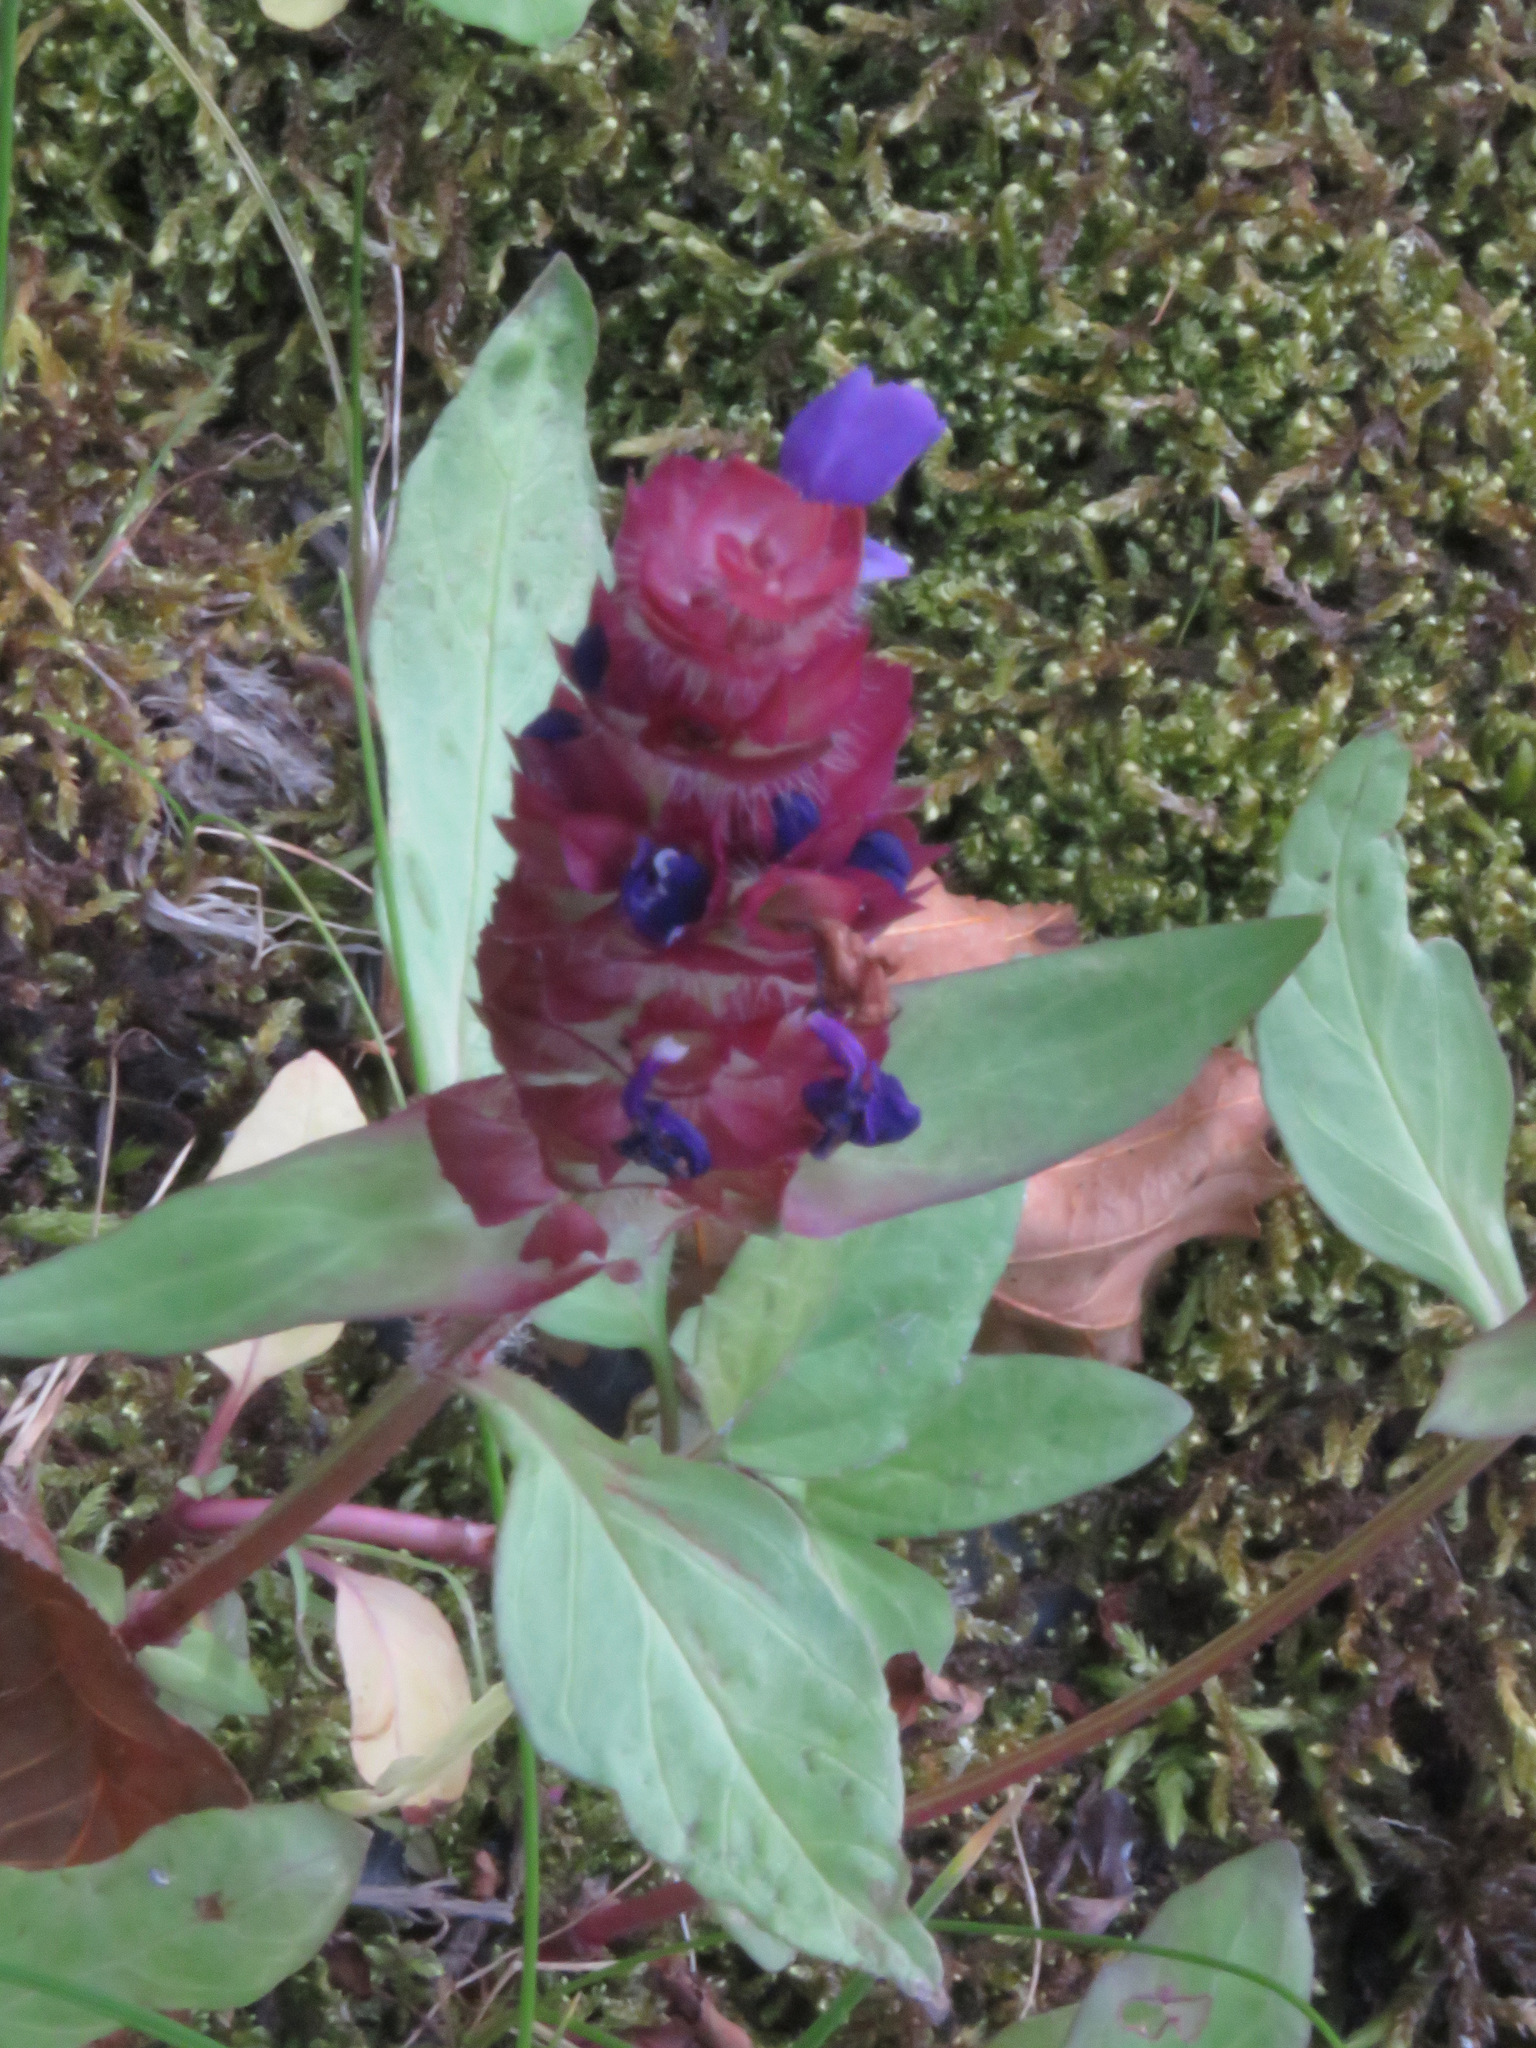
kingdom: Plantae
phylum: Tracheophyta
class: Magnoliopsida
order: Lamiales
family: Lamiaceae
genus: Prunella
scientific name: Prunella vulgaris
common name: Heal-all
